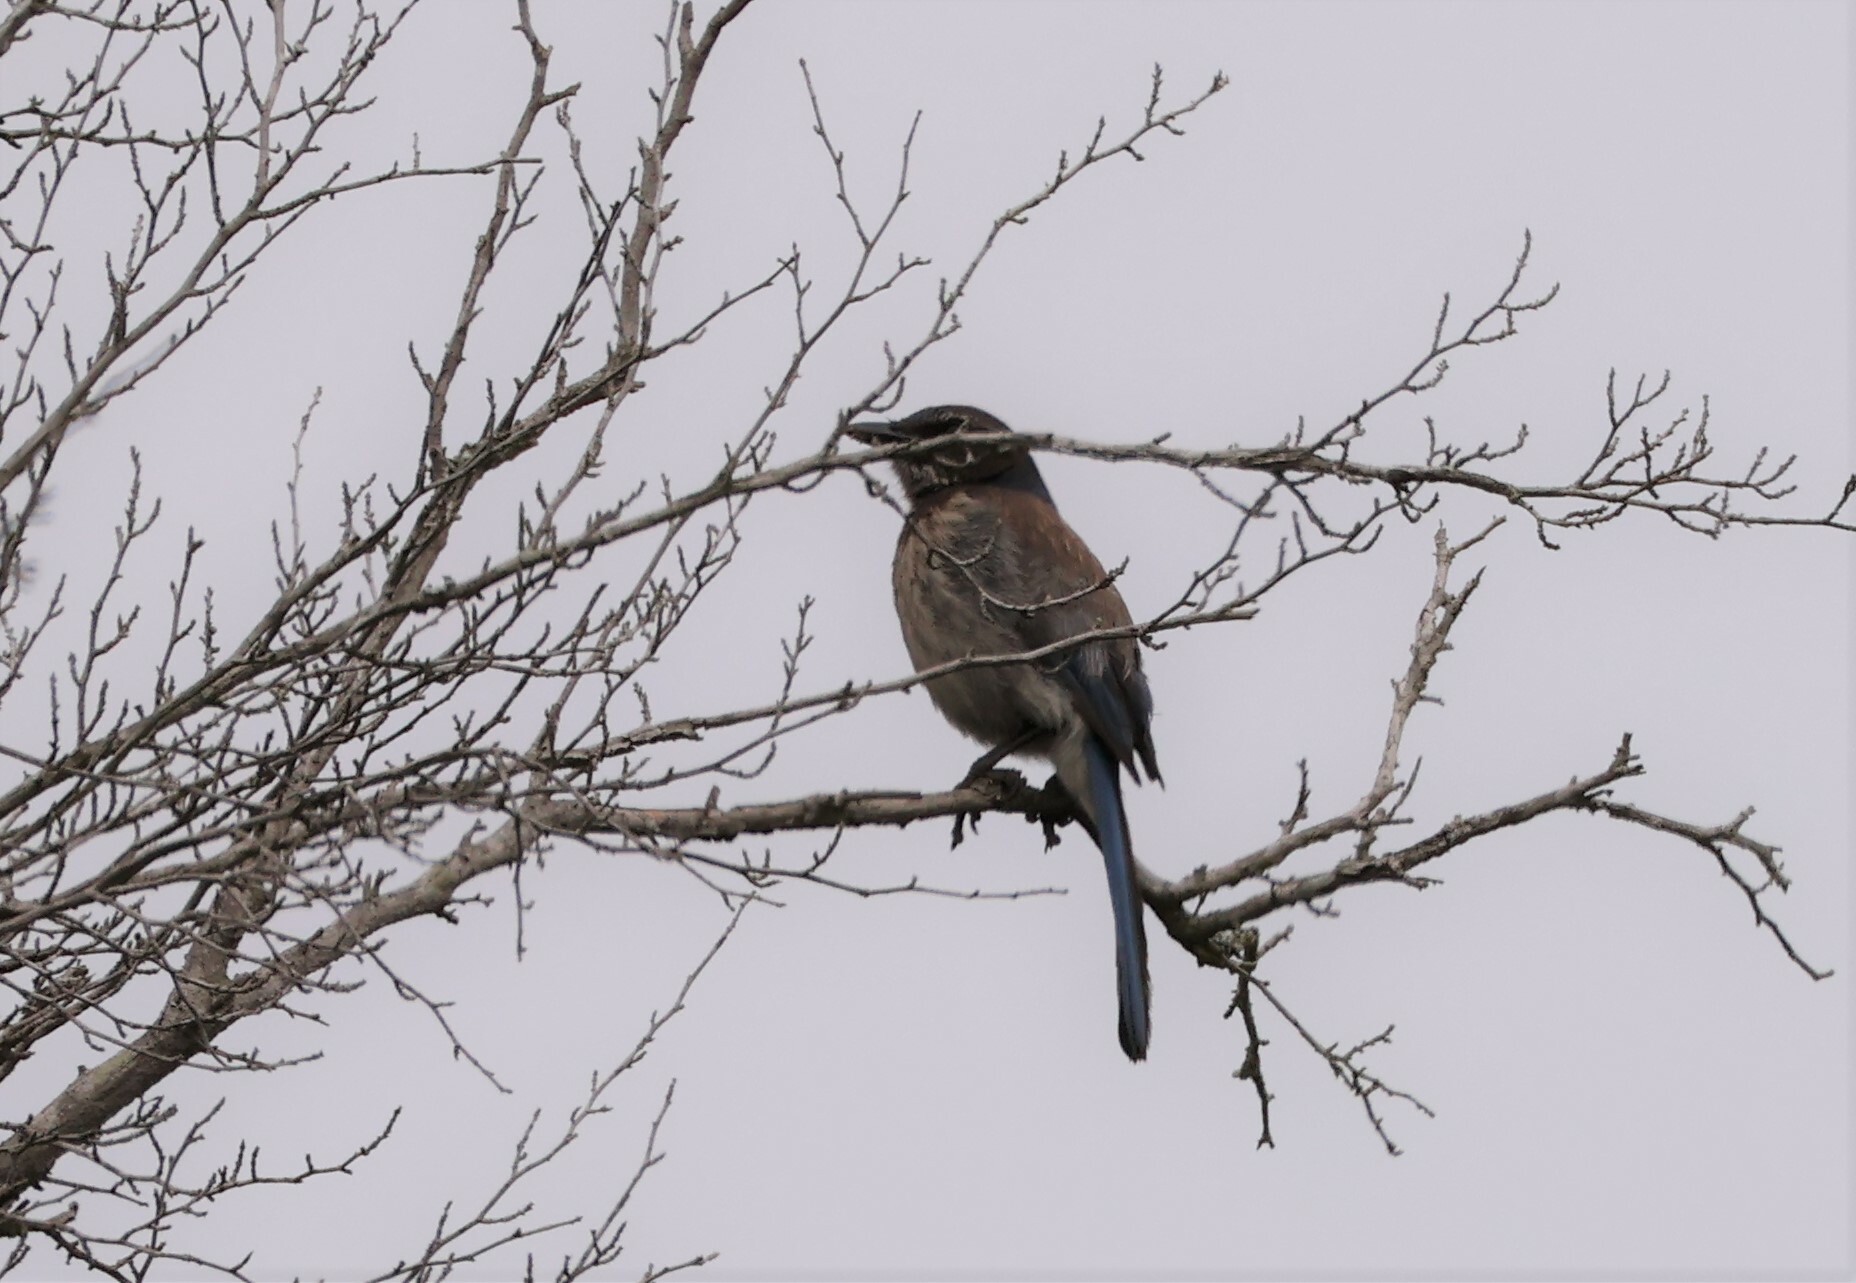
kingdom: Animalia
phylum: Chordata
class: Aves
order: Passeriformes
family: Corvidae
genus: Aphelocoma
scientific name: Aphelocoma californica
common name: California scrub-jay
